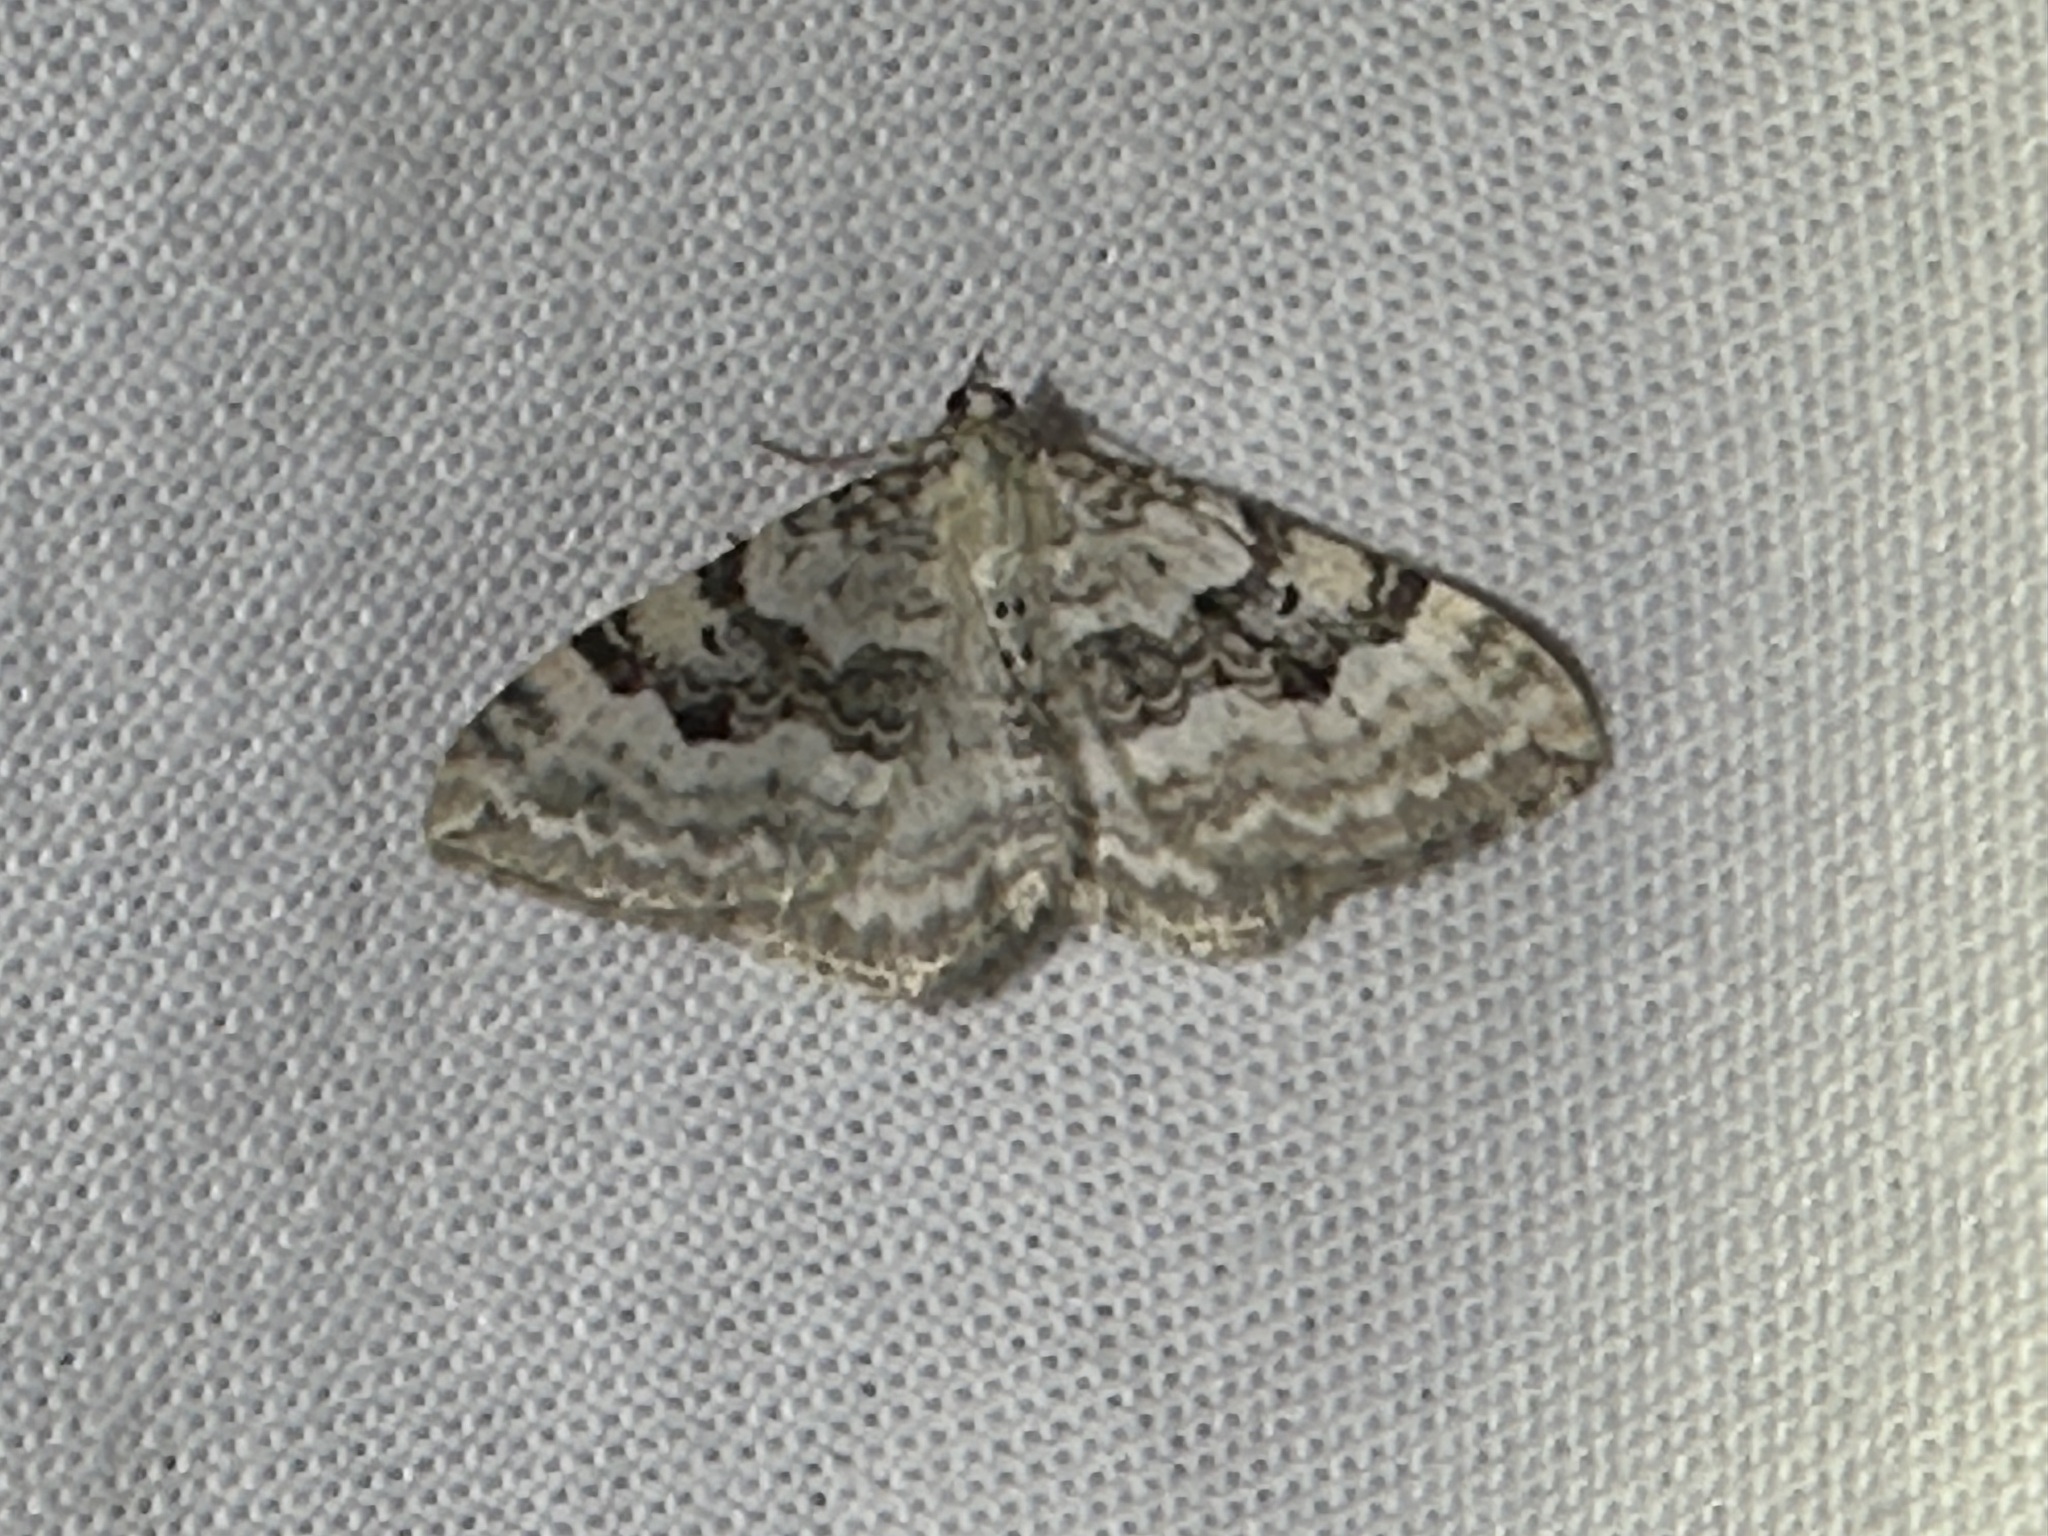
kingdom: Animalia
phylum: Arthropoda
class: Insecta
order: Lepidoptera
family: Geometridae
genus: Xanthorhoe
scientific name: Xanthorhoe montanata
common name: Silver-ground carpet
